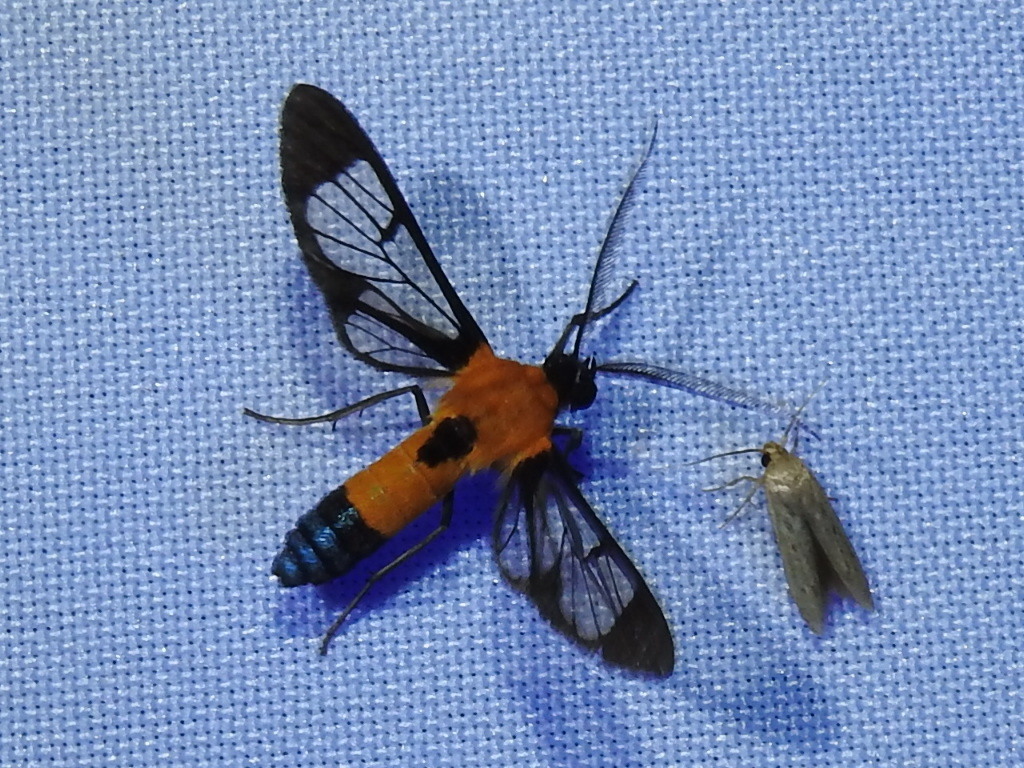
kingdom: Animalia
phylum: Arthropoda
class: Insecta
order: Lepidoptera
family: Erebidae
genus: Mesothen
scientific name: Mesothen dorsimacula
